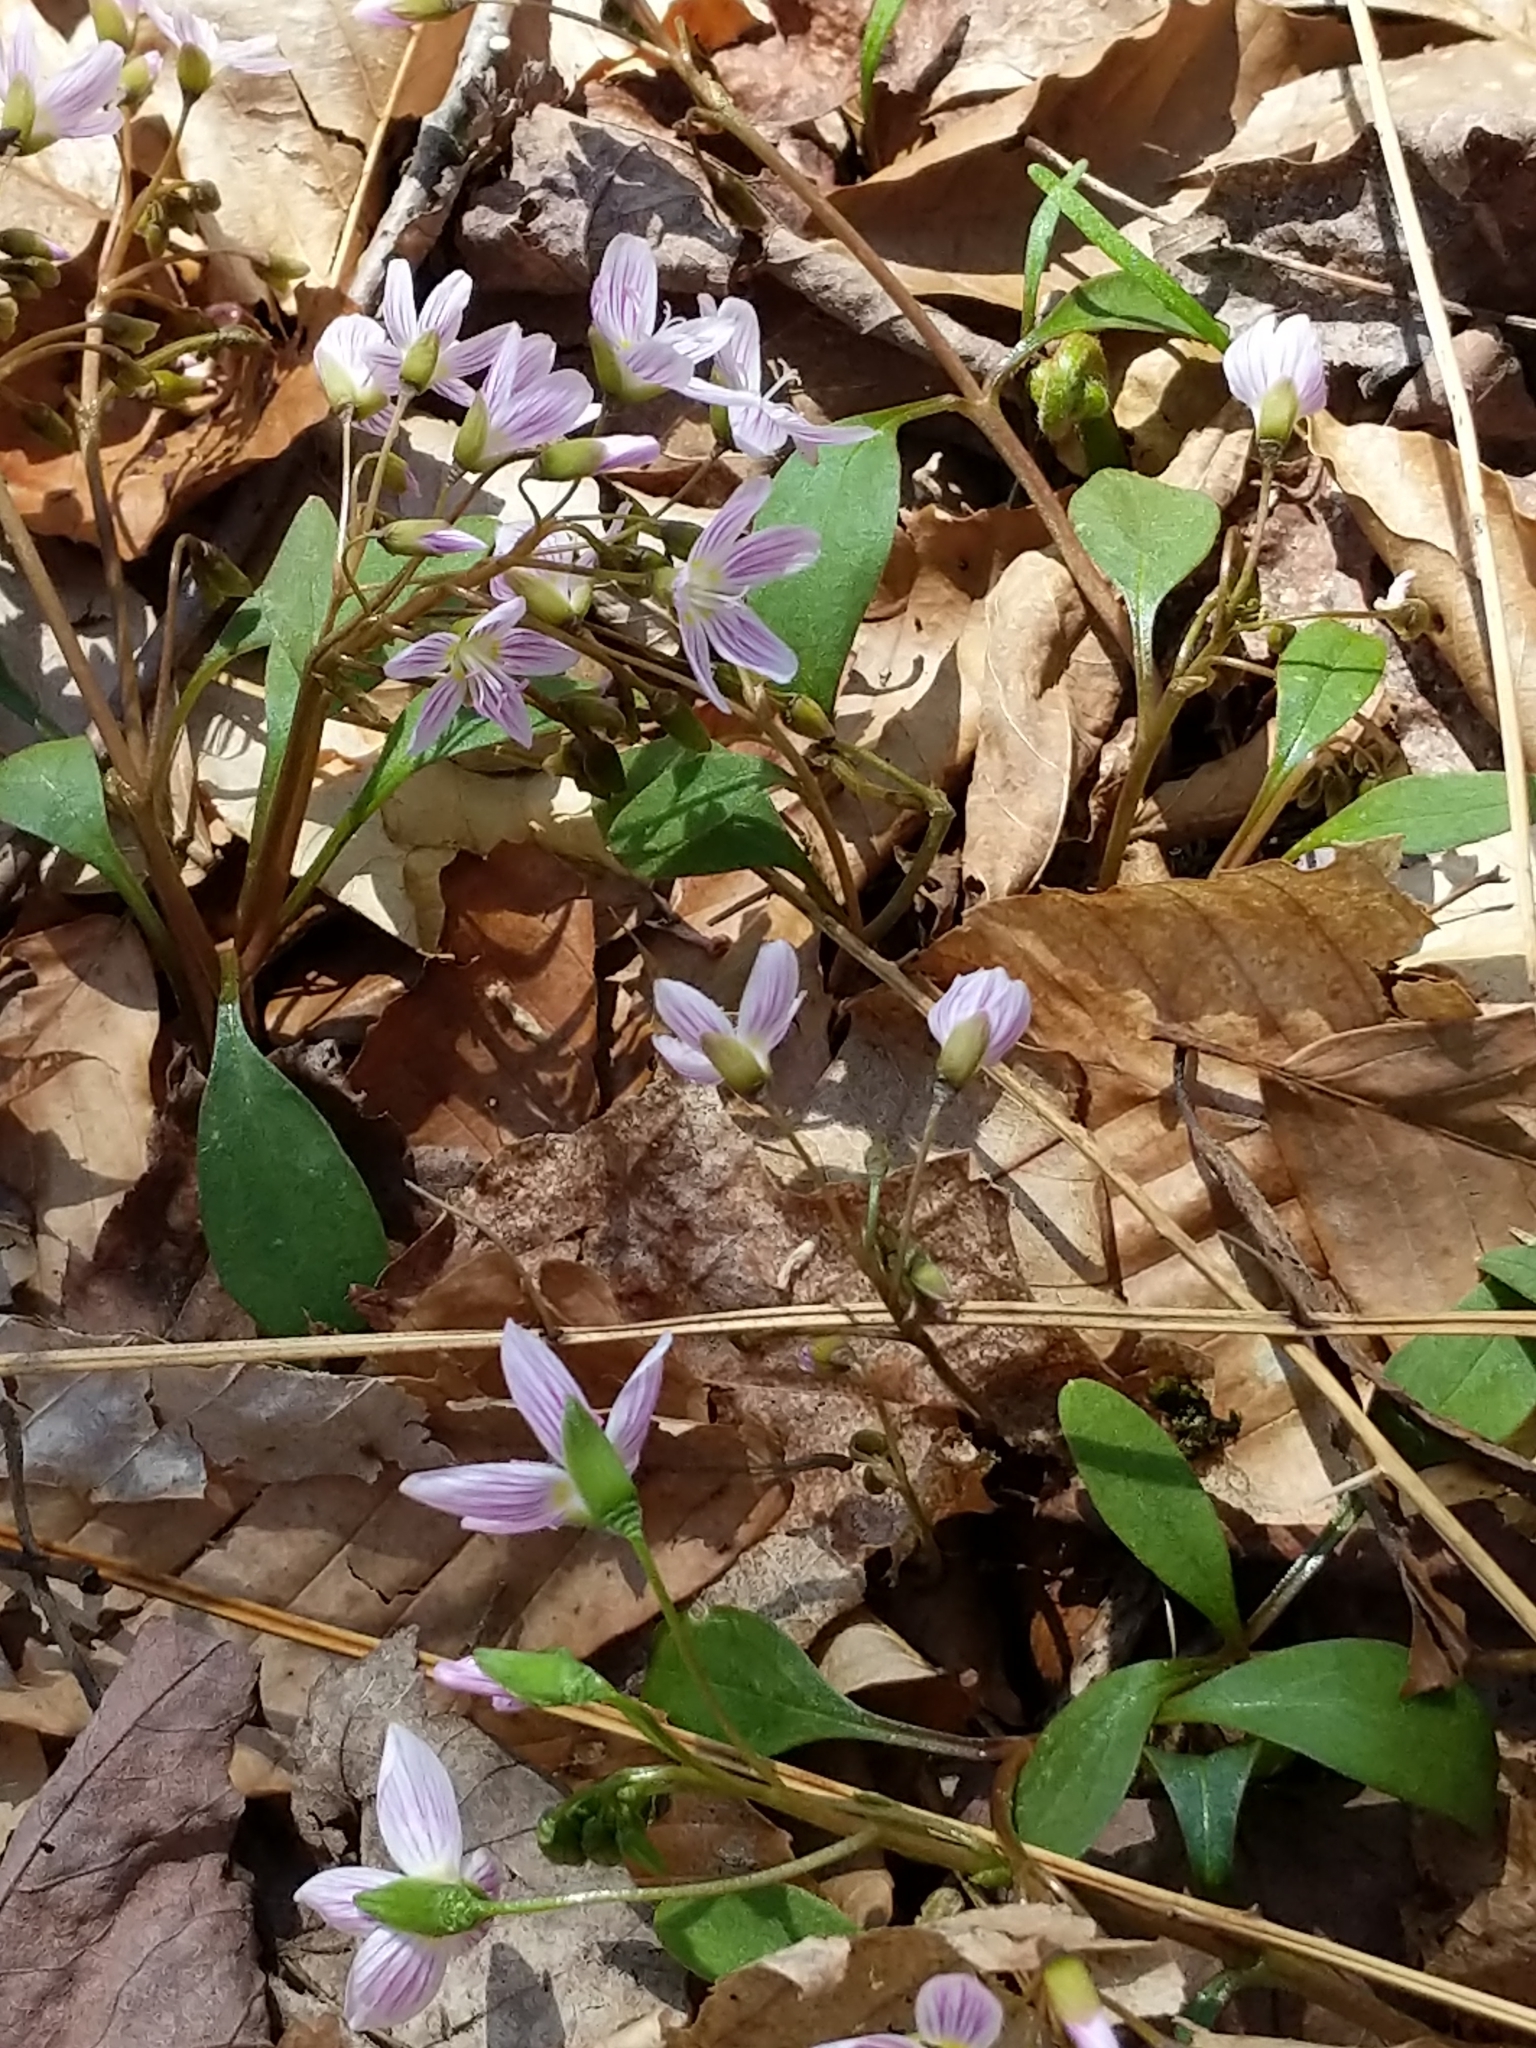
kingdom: Plantae
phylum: Tracheophyta
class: Magnoliopsida
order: Caryophyllales
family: Montiaceae
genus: Claytonia
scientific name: Claytonia caroliniana
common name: Carolina spring beauty
